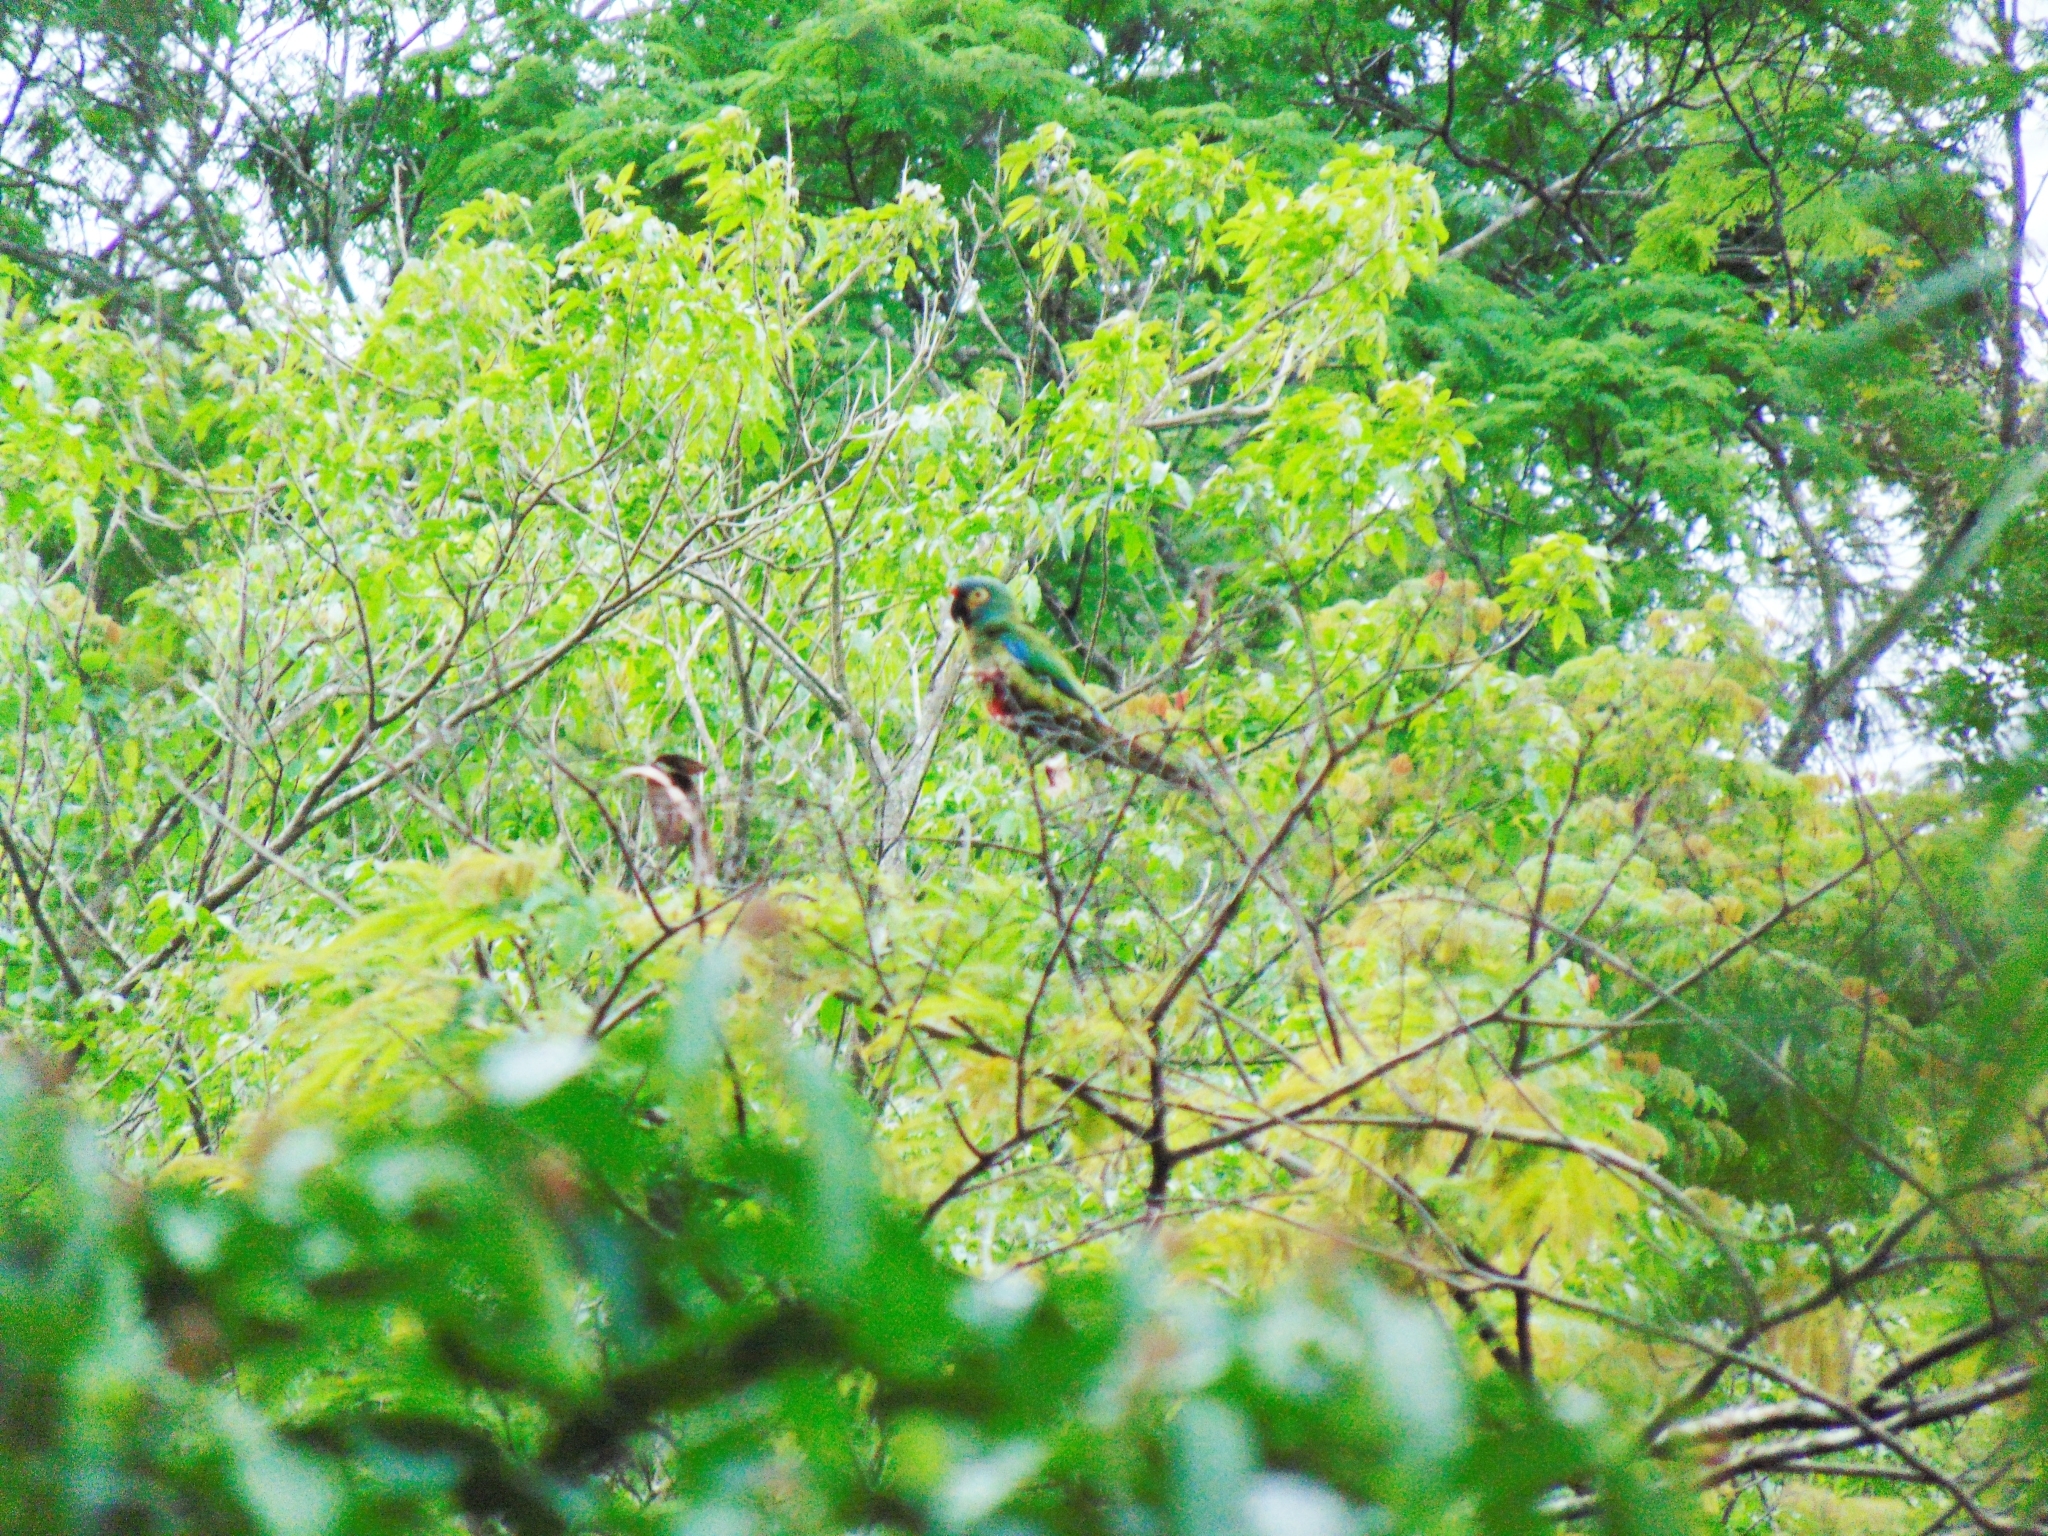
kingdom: Animalia
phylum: Chordata
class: Aves
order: Psittaciformes
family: Psittacidae
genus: Primolius
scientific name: Primolius maracana
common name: Blue-winged macaw
